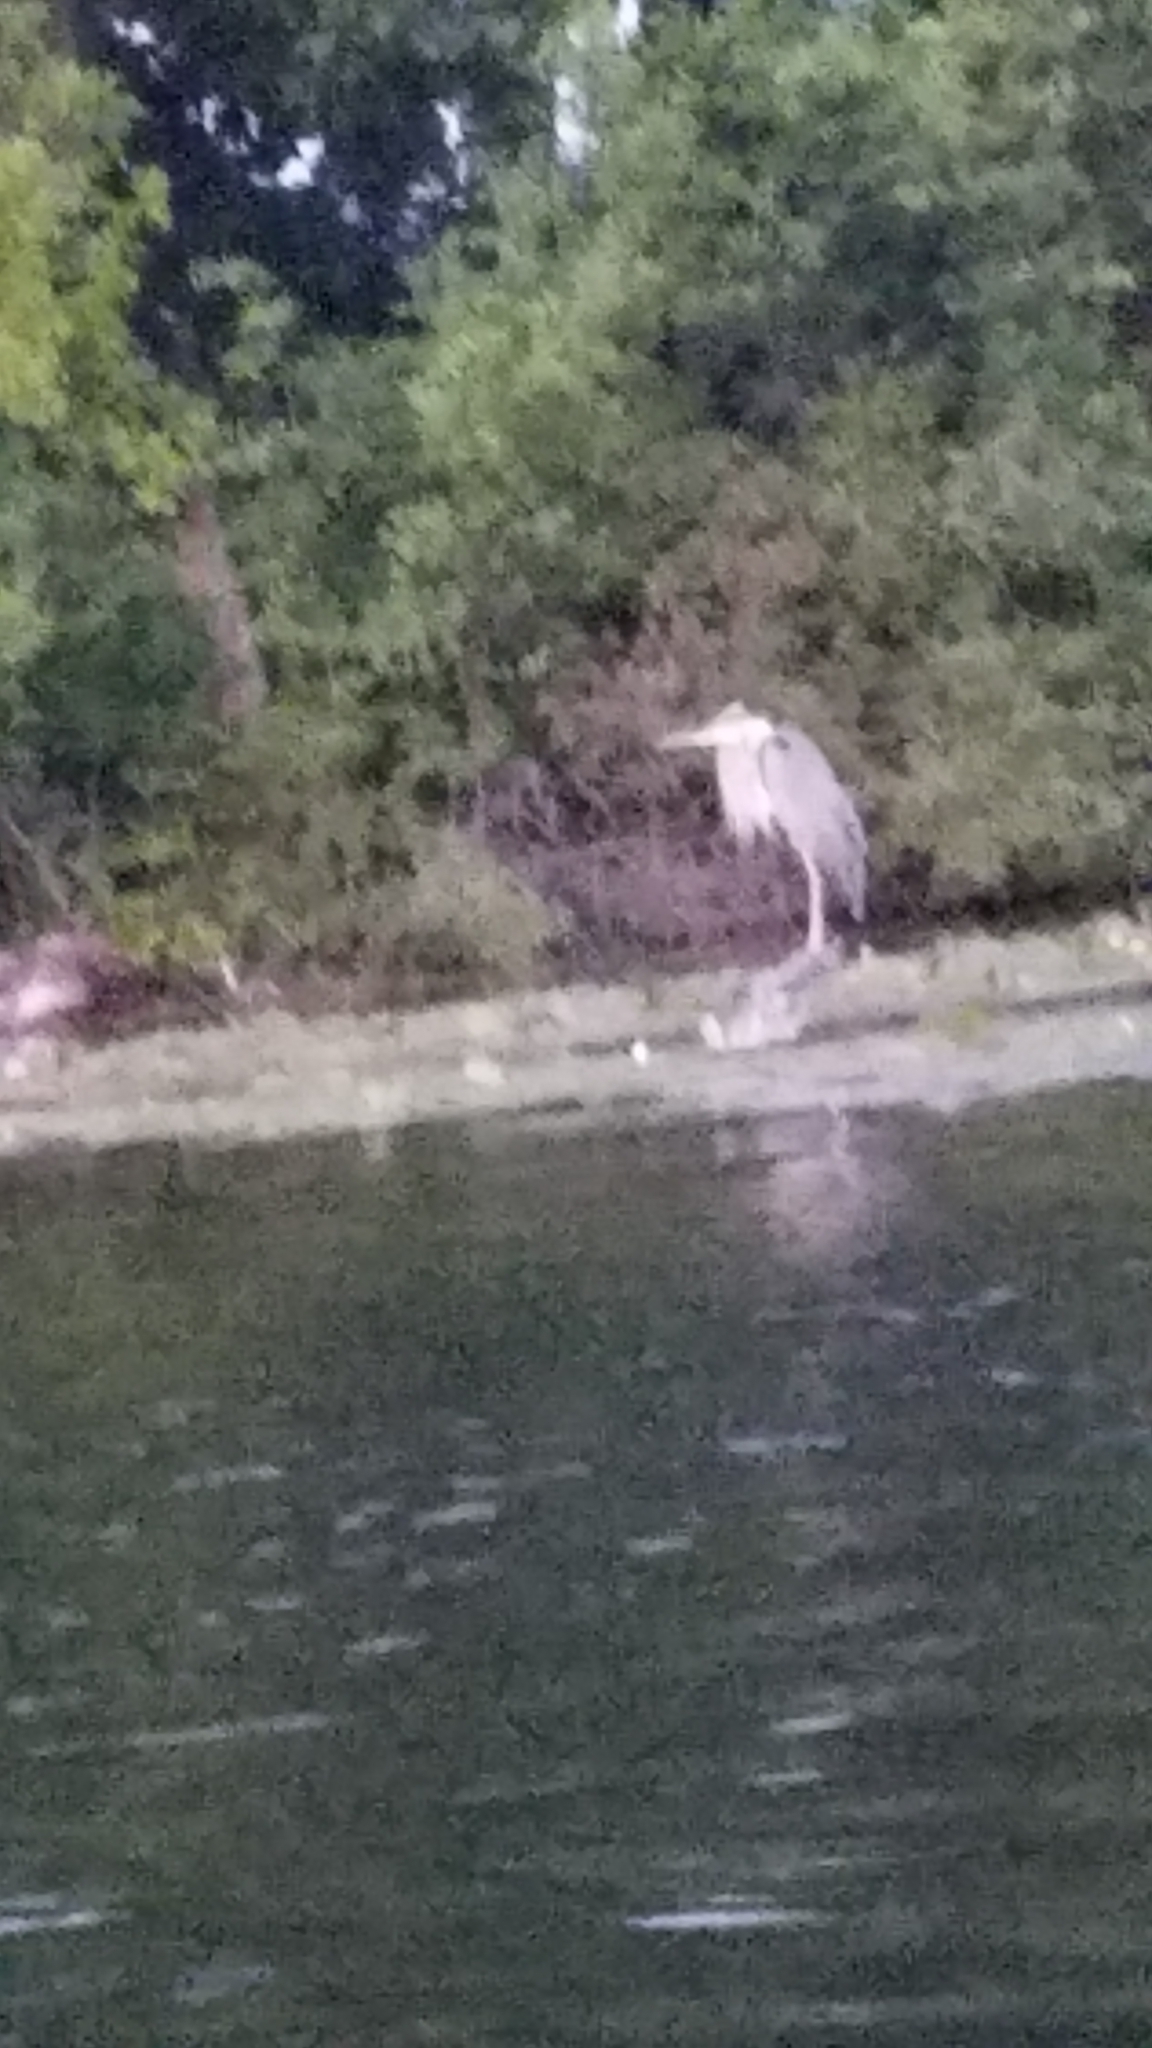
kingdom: Animalia
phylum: Chordata
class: Aves
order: Pelecaniformes
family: Ardeidae
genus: Ardea
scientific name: Ardea herodias
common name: Great blue heron
